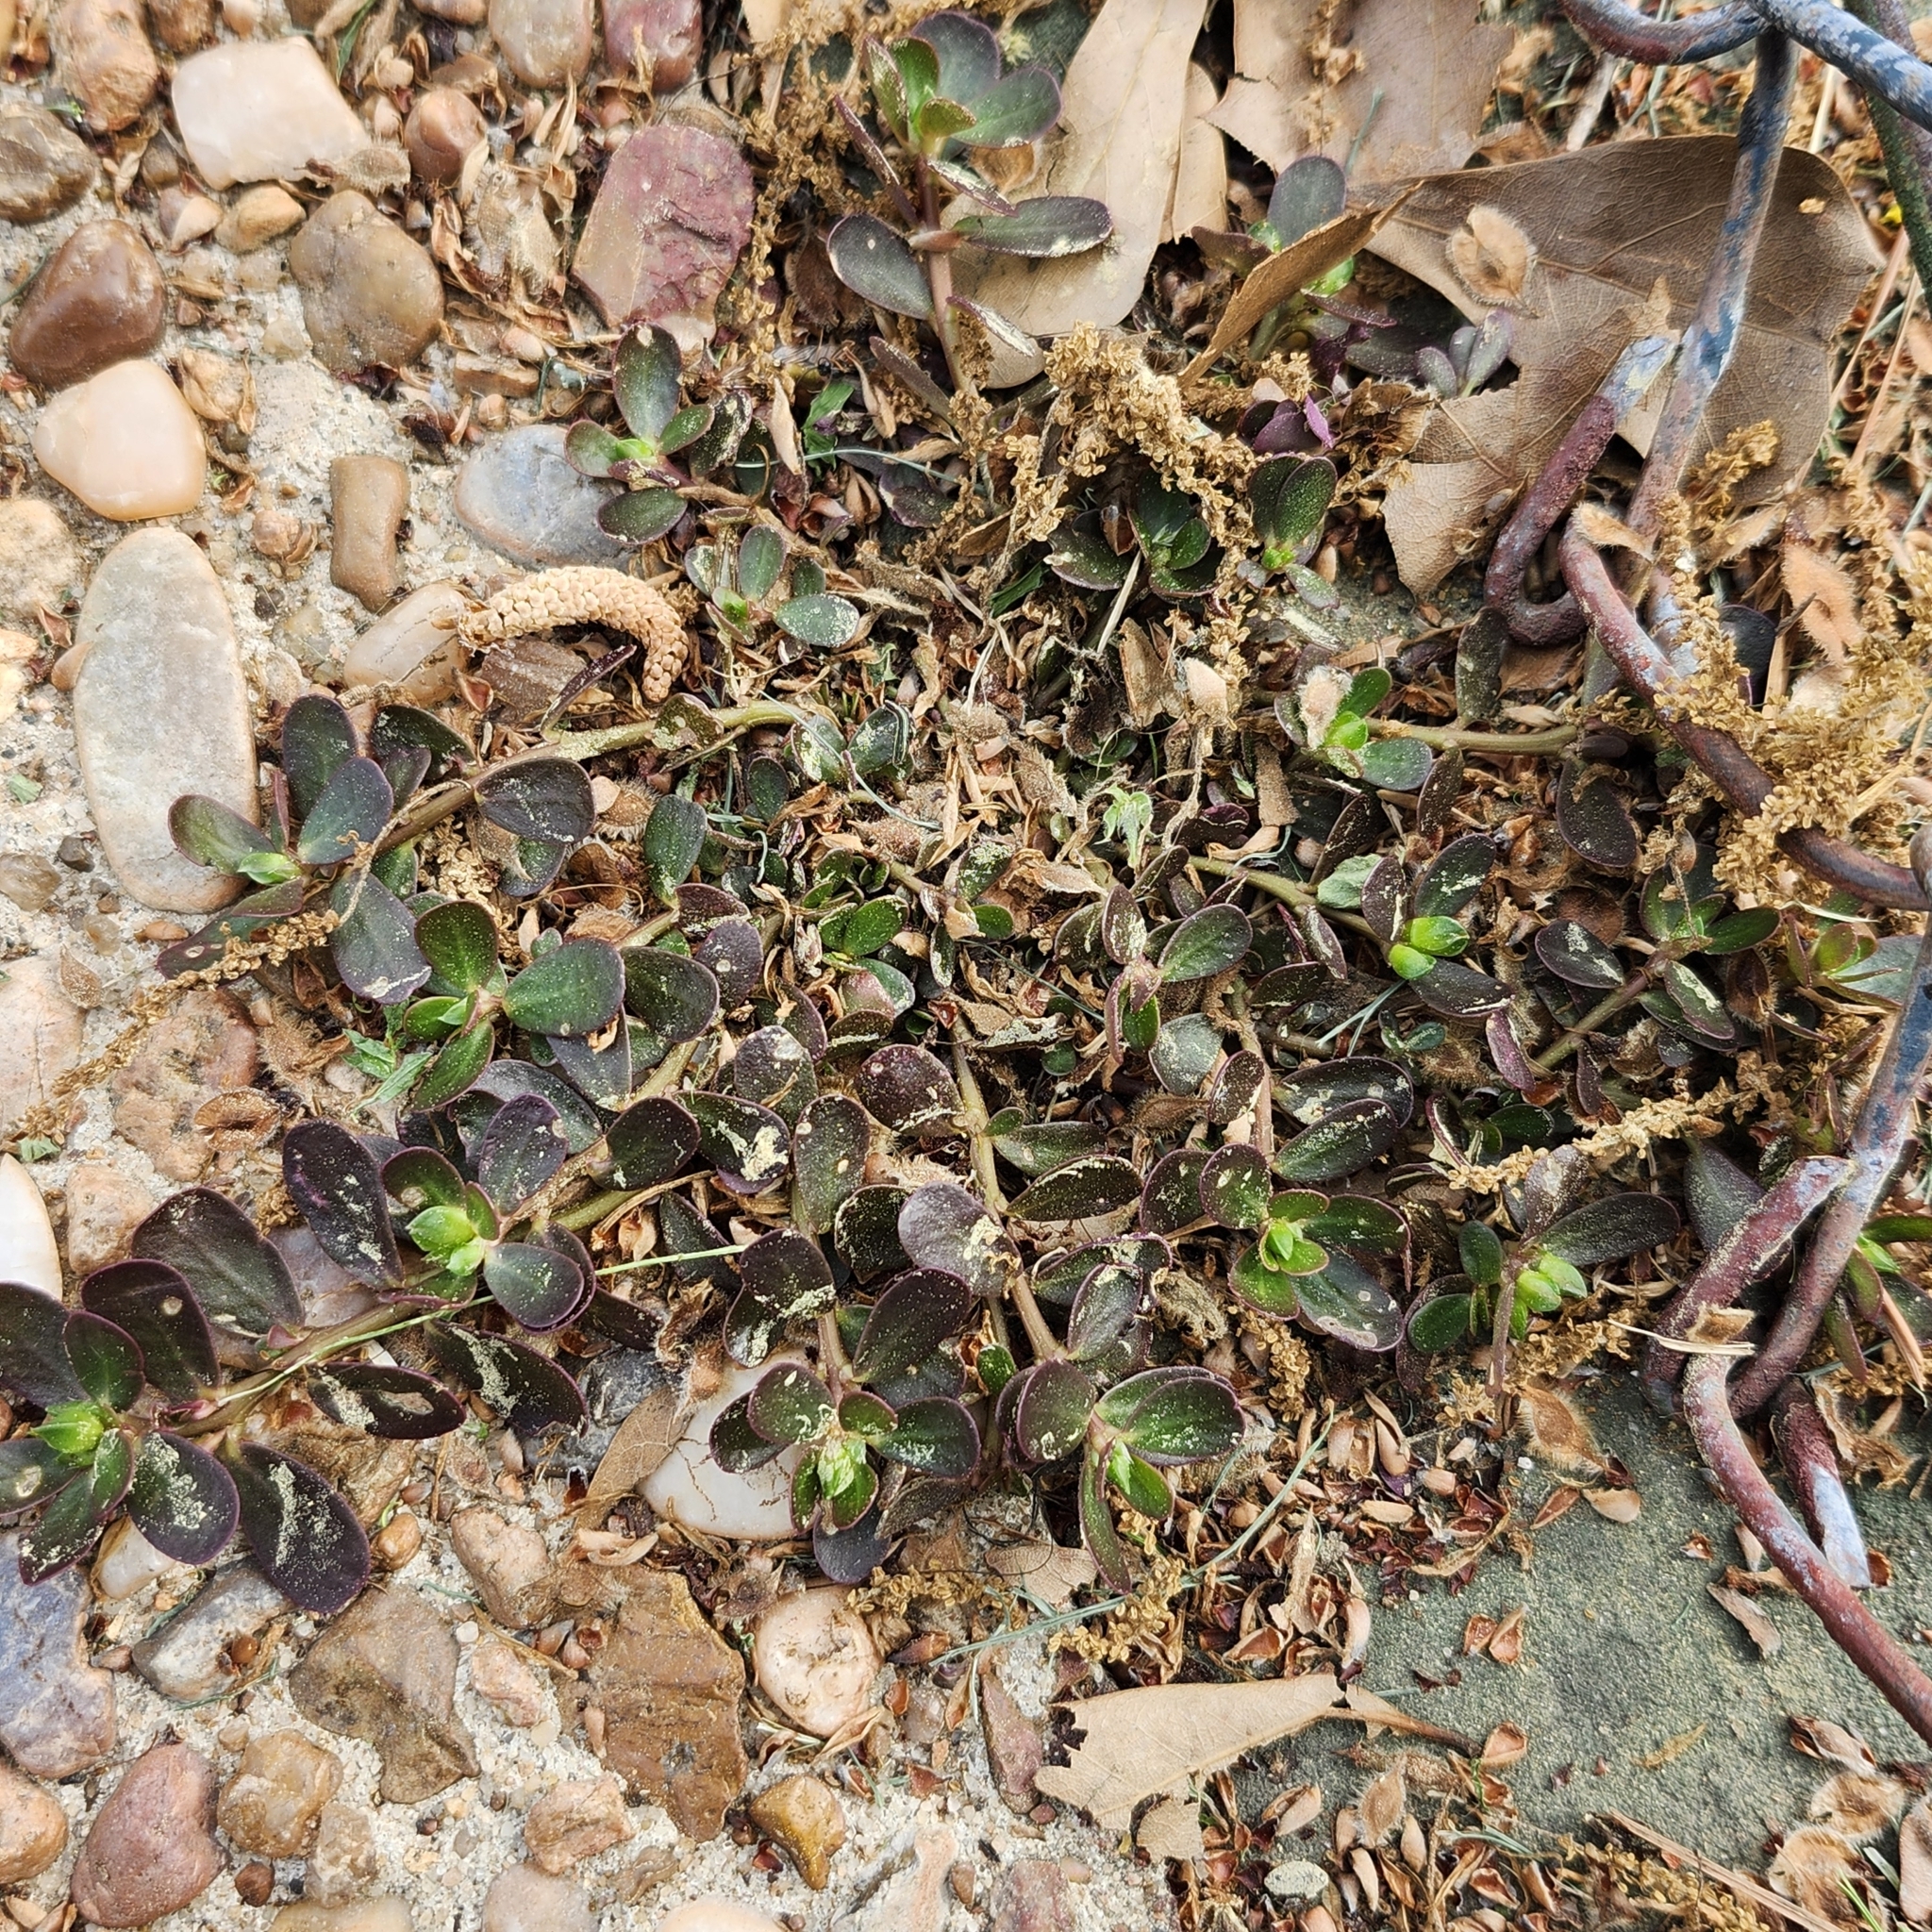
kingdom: Plantae
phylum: Tracheophyta
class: Magnoliopsida
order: Caryophyllales
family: Portulacaceae
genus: Portulaca
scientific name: Portulaca oleracea
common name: Common purslane
